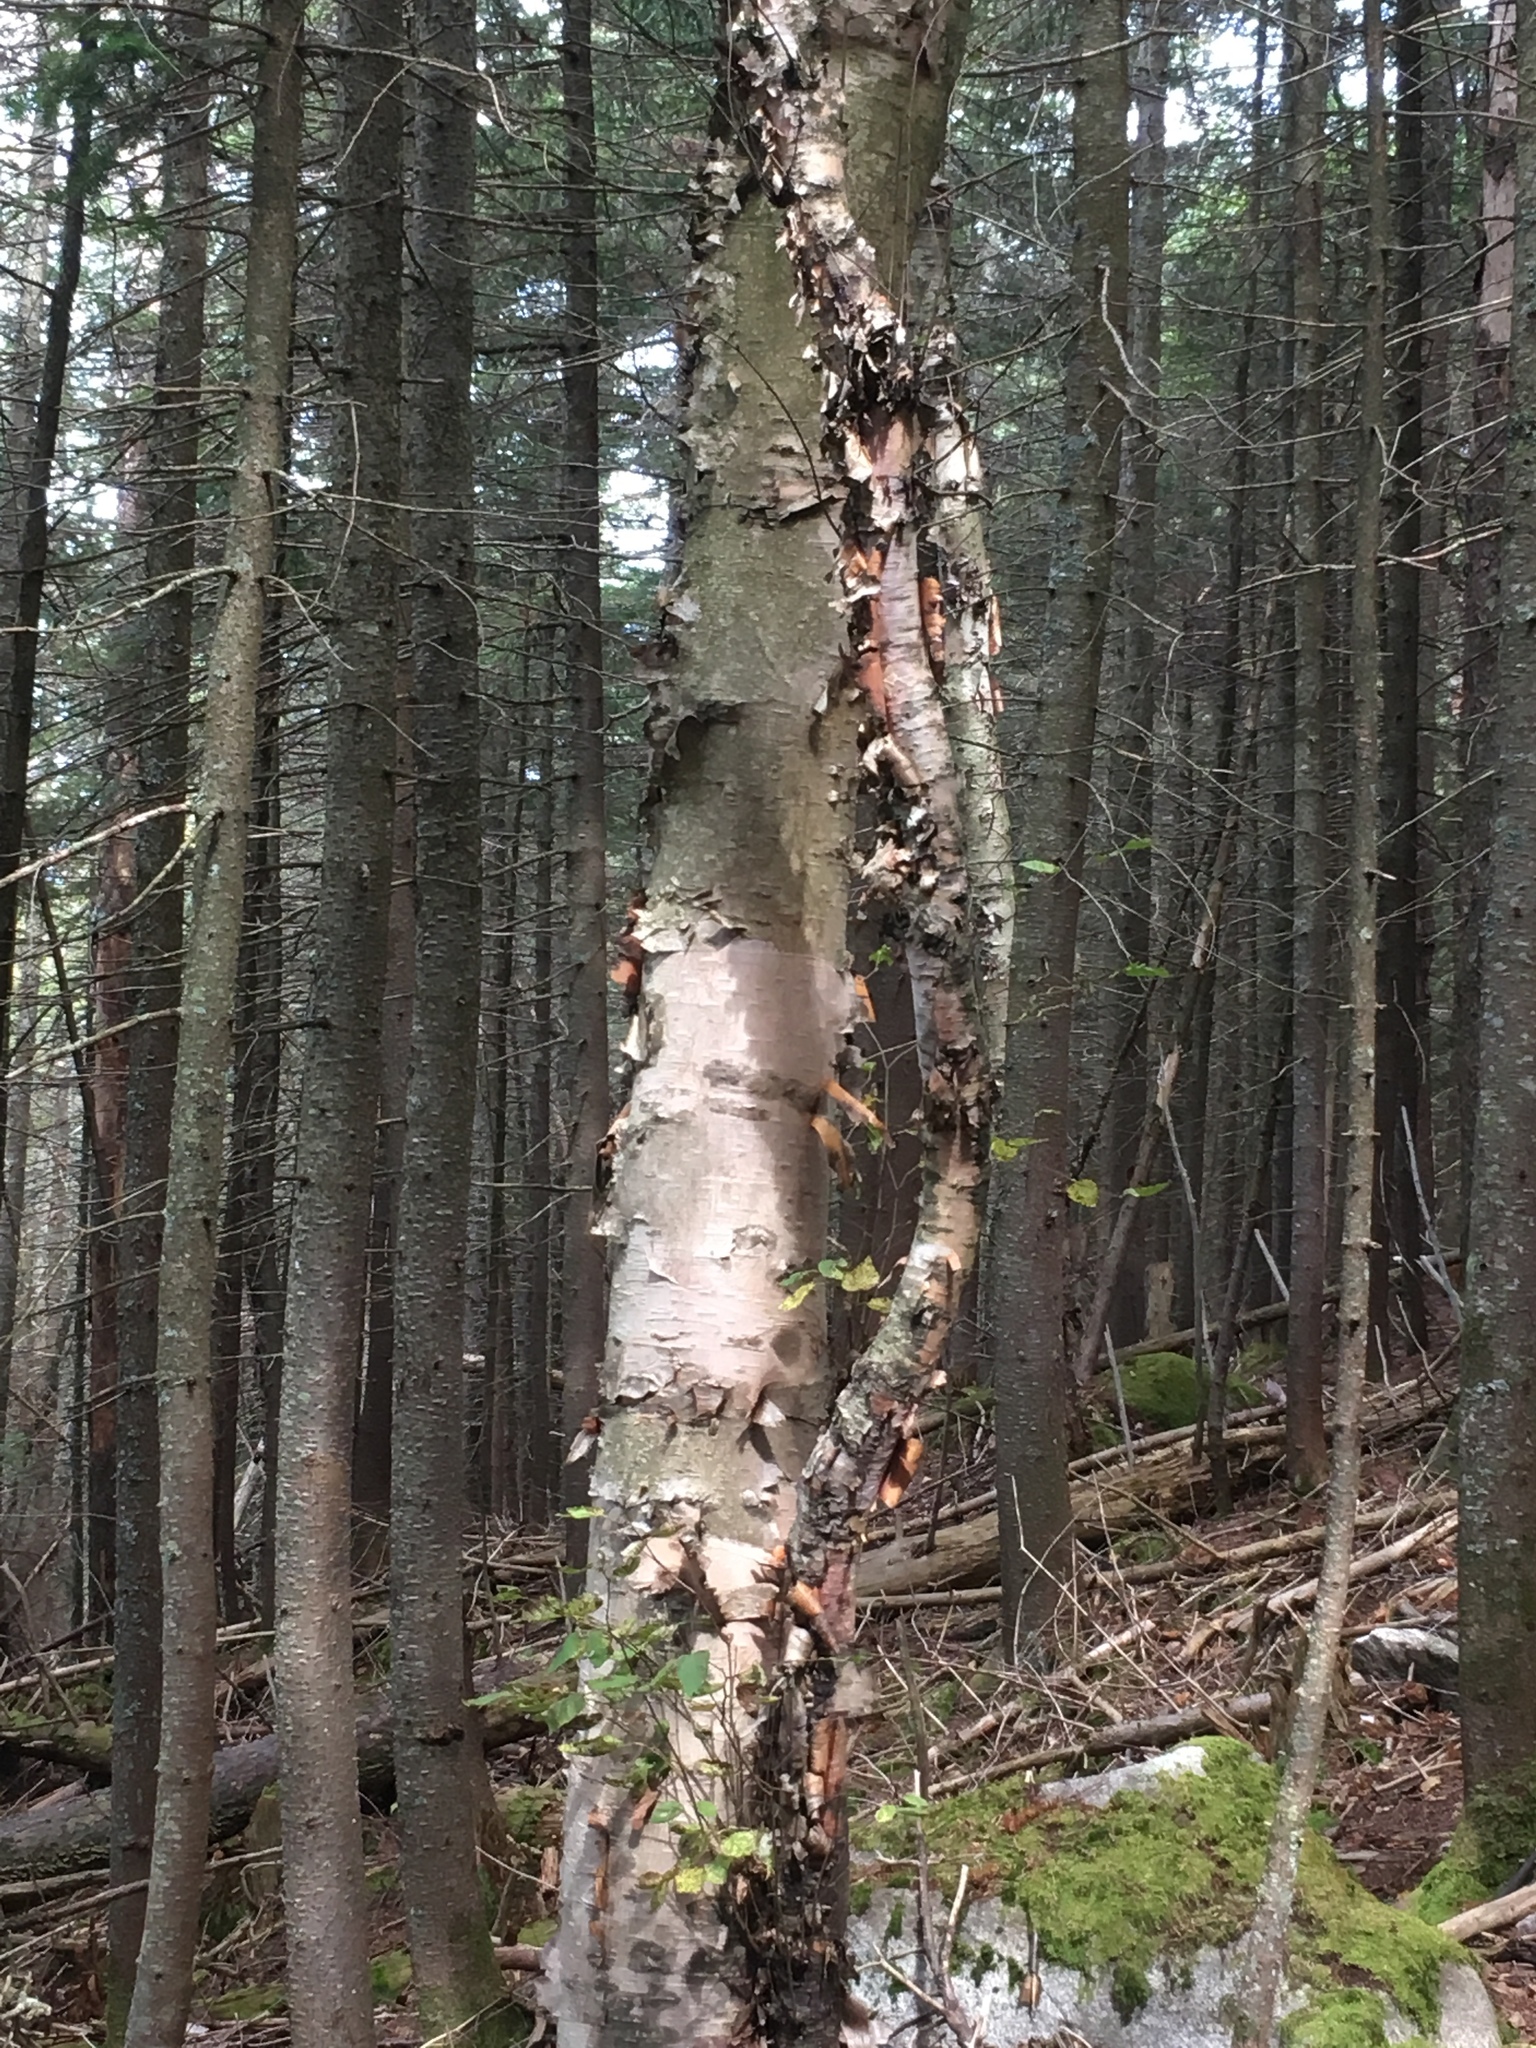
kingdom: Plantae
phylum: Tracheophyta
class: Magnoliopsida
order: Fagales
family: Betulaceae
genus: Betula
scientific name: Betula cordifolia
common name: Mountain white birch
